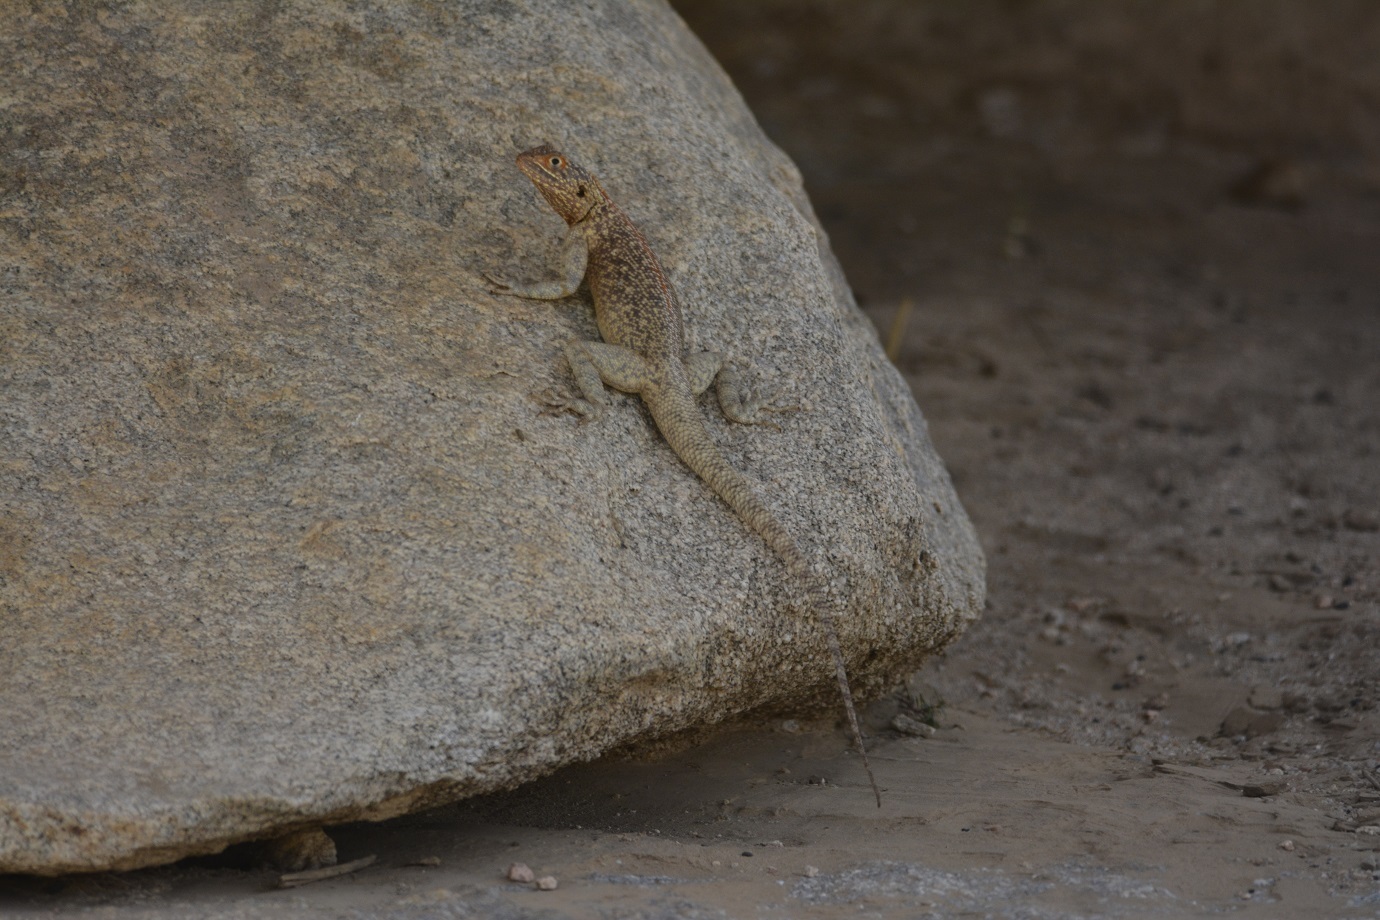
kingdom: Animalia
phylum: Chordata
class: Squamata
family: Agamidae
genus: Agama
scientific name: Agama tassiliensis
